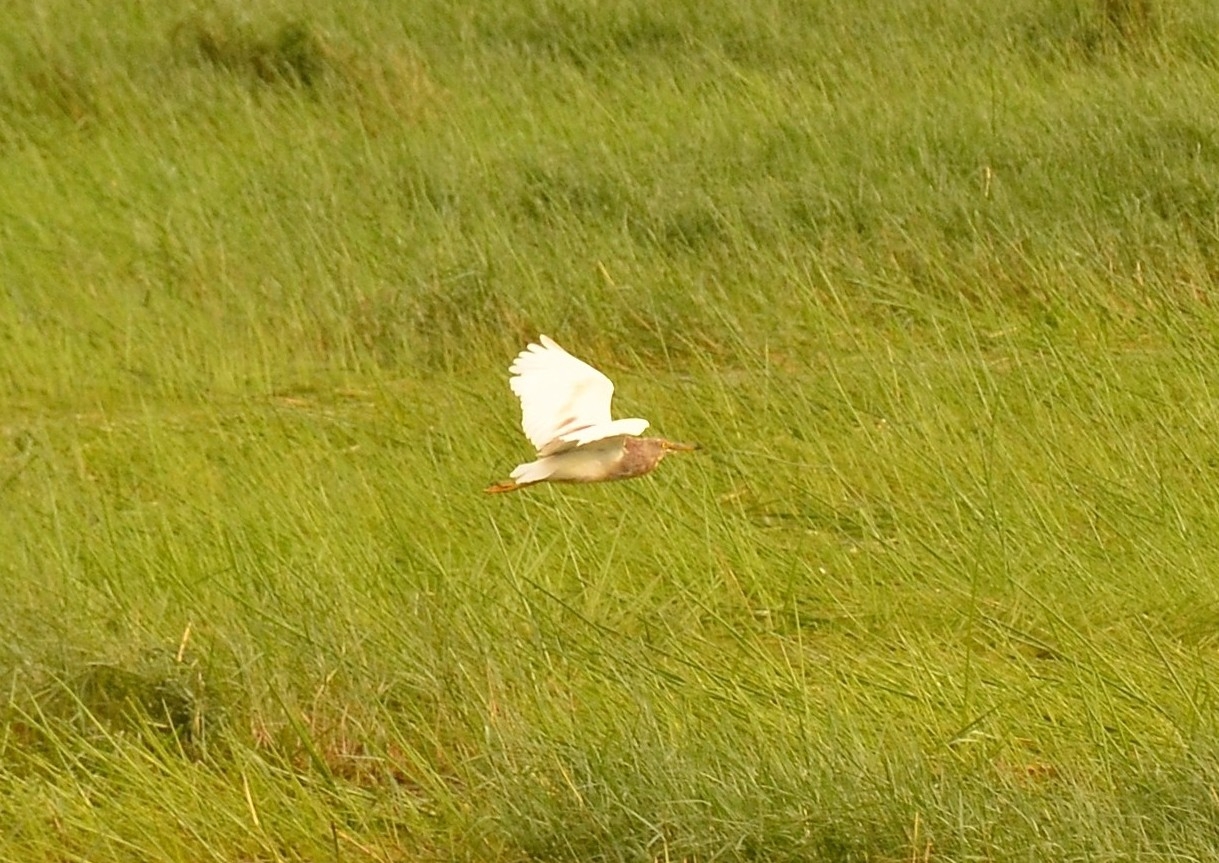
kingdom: Animalia
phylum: Chordata
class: Aves
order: Pelecaniformes
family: Ardeidae
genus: Ardeola
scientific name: Ardeola grayii
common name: Indian pond heron
